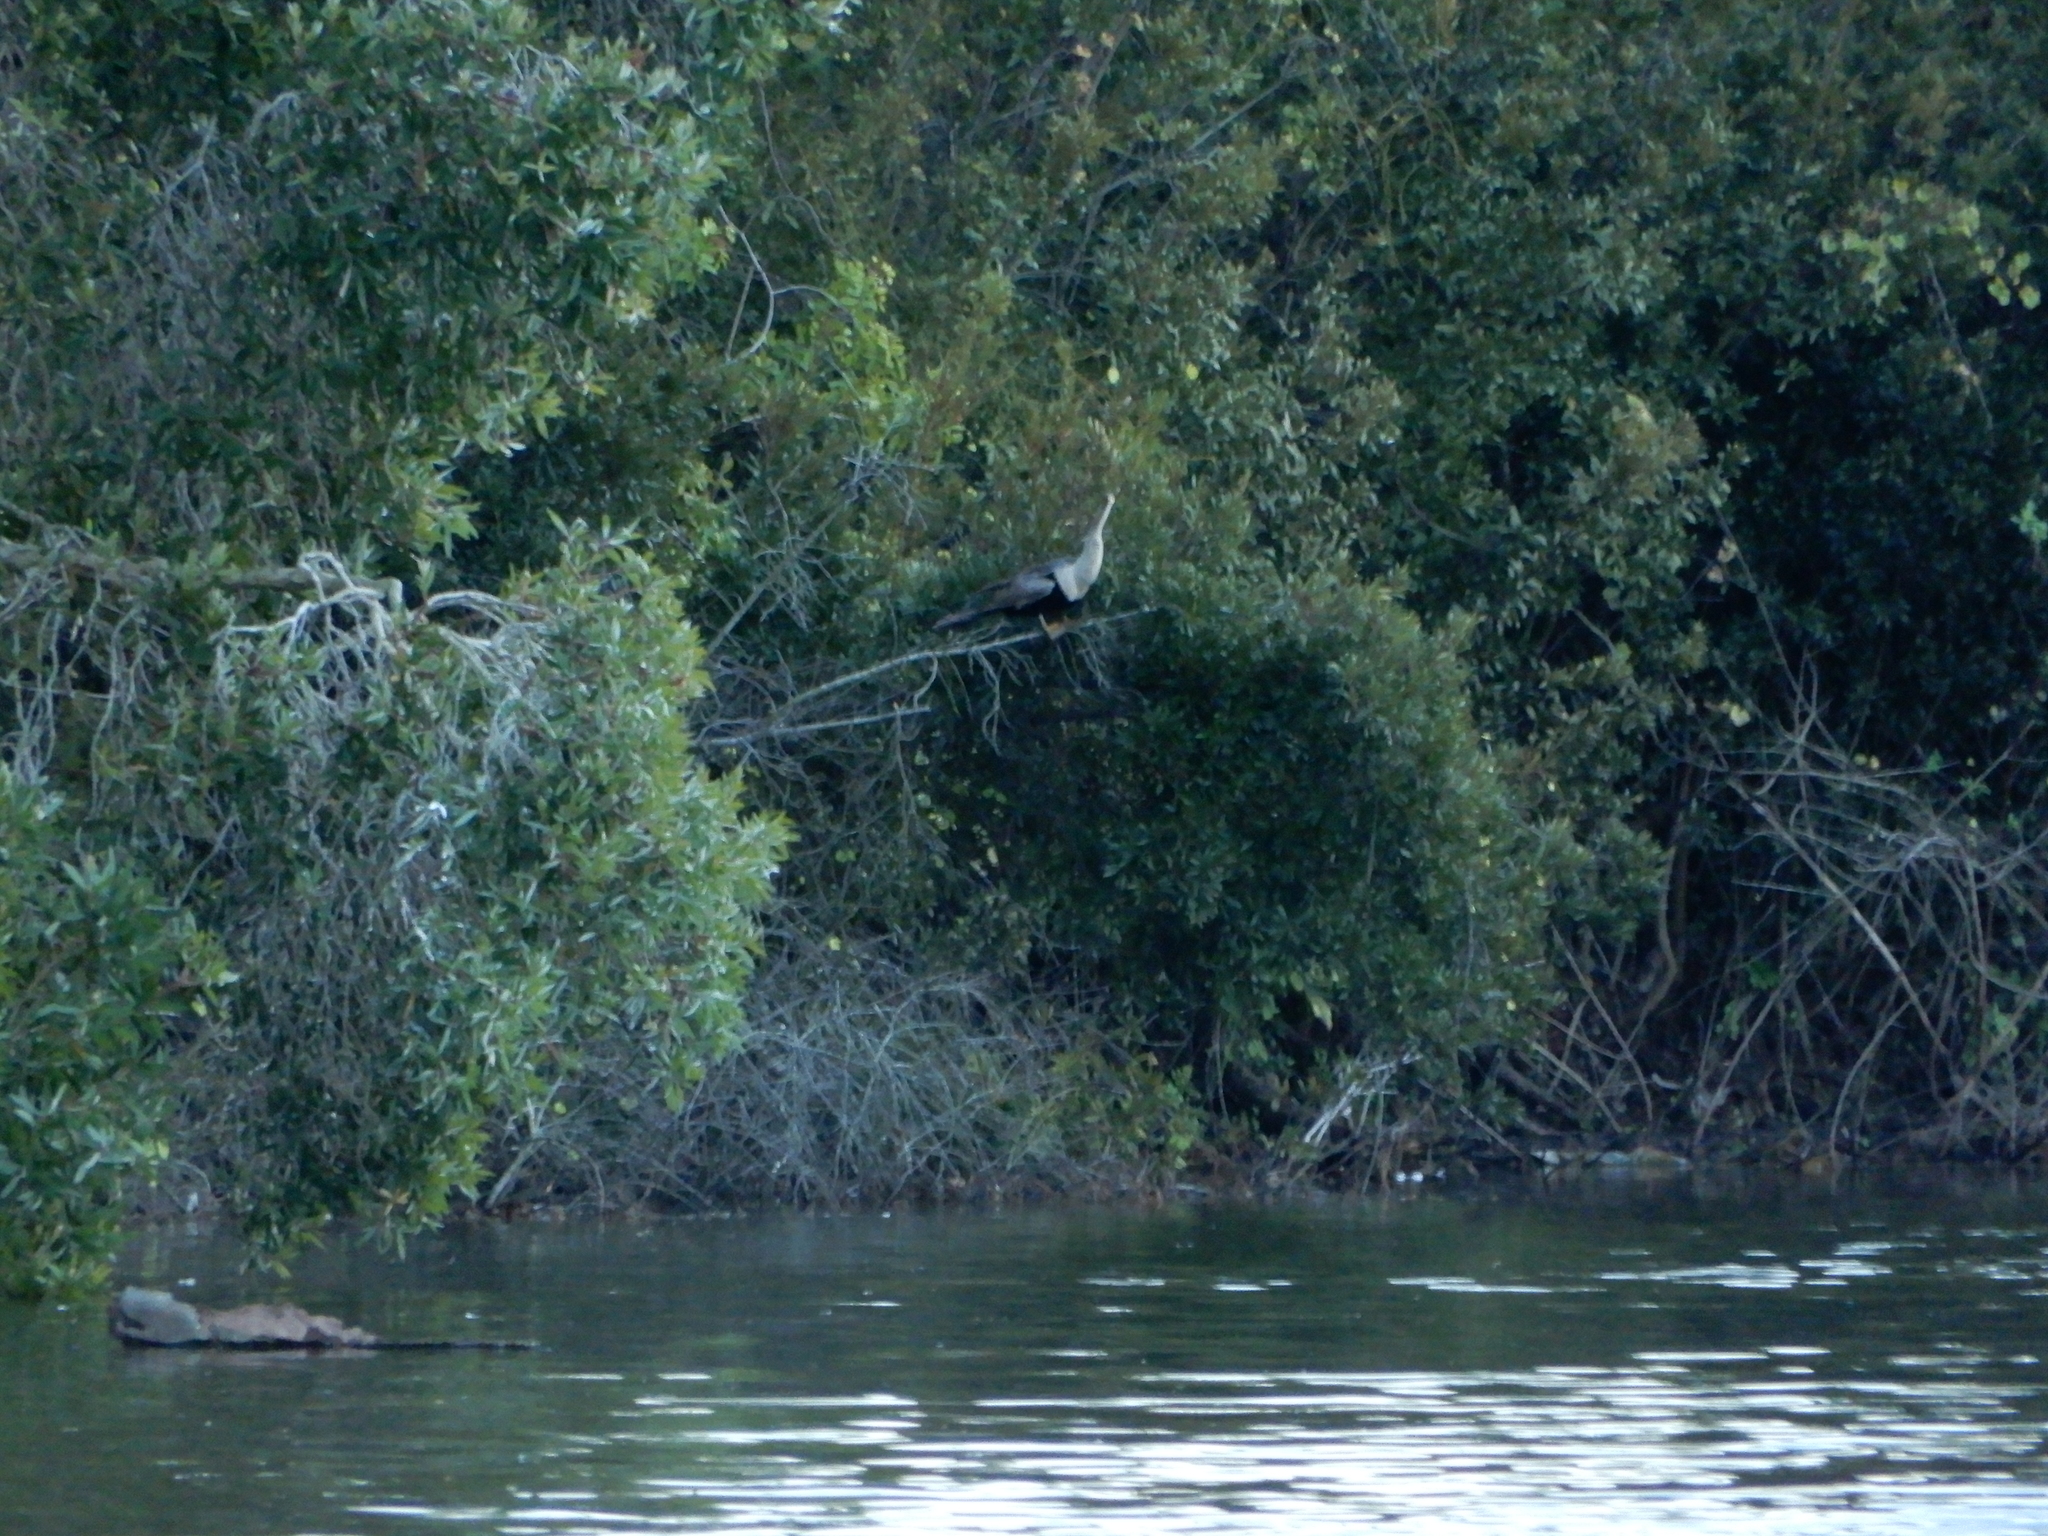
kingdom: Animalia
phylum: Chordata
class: Aves
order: Suliformes
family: Anhingidae
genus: Anhinga
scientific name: Anhinga anhinga
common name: Anhinga
